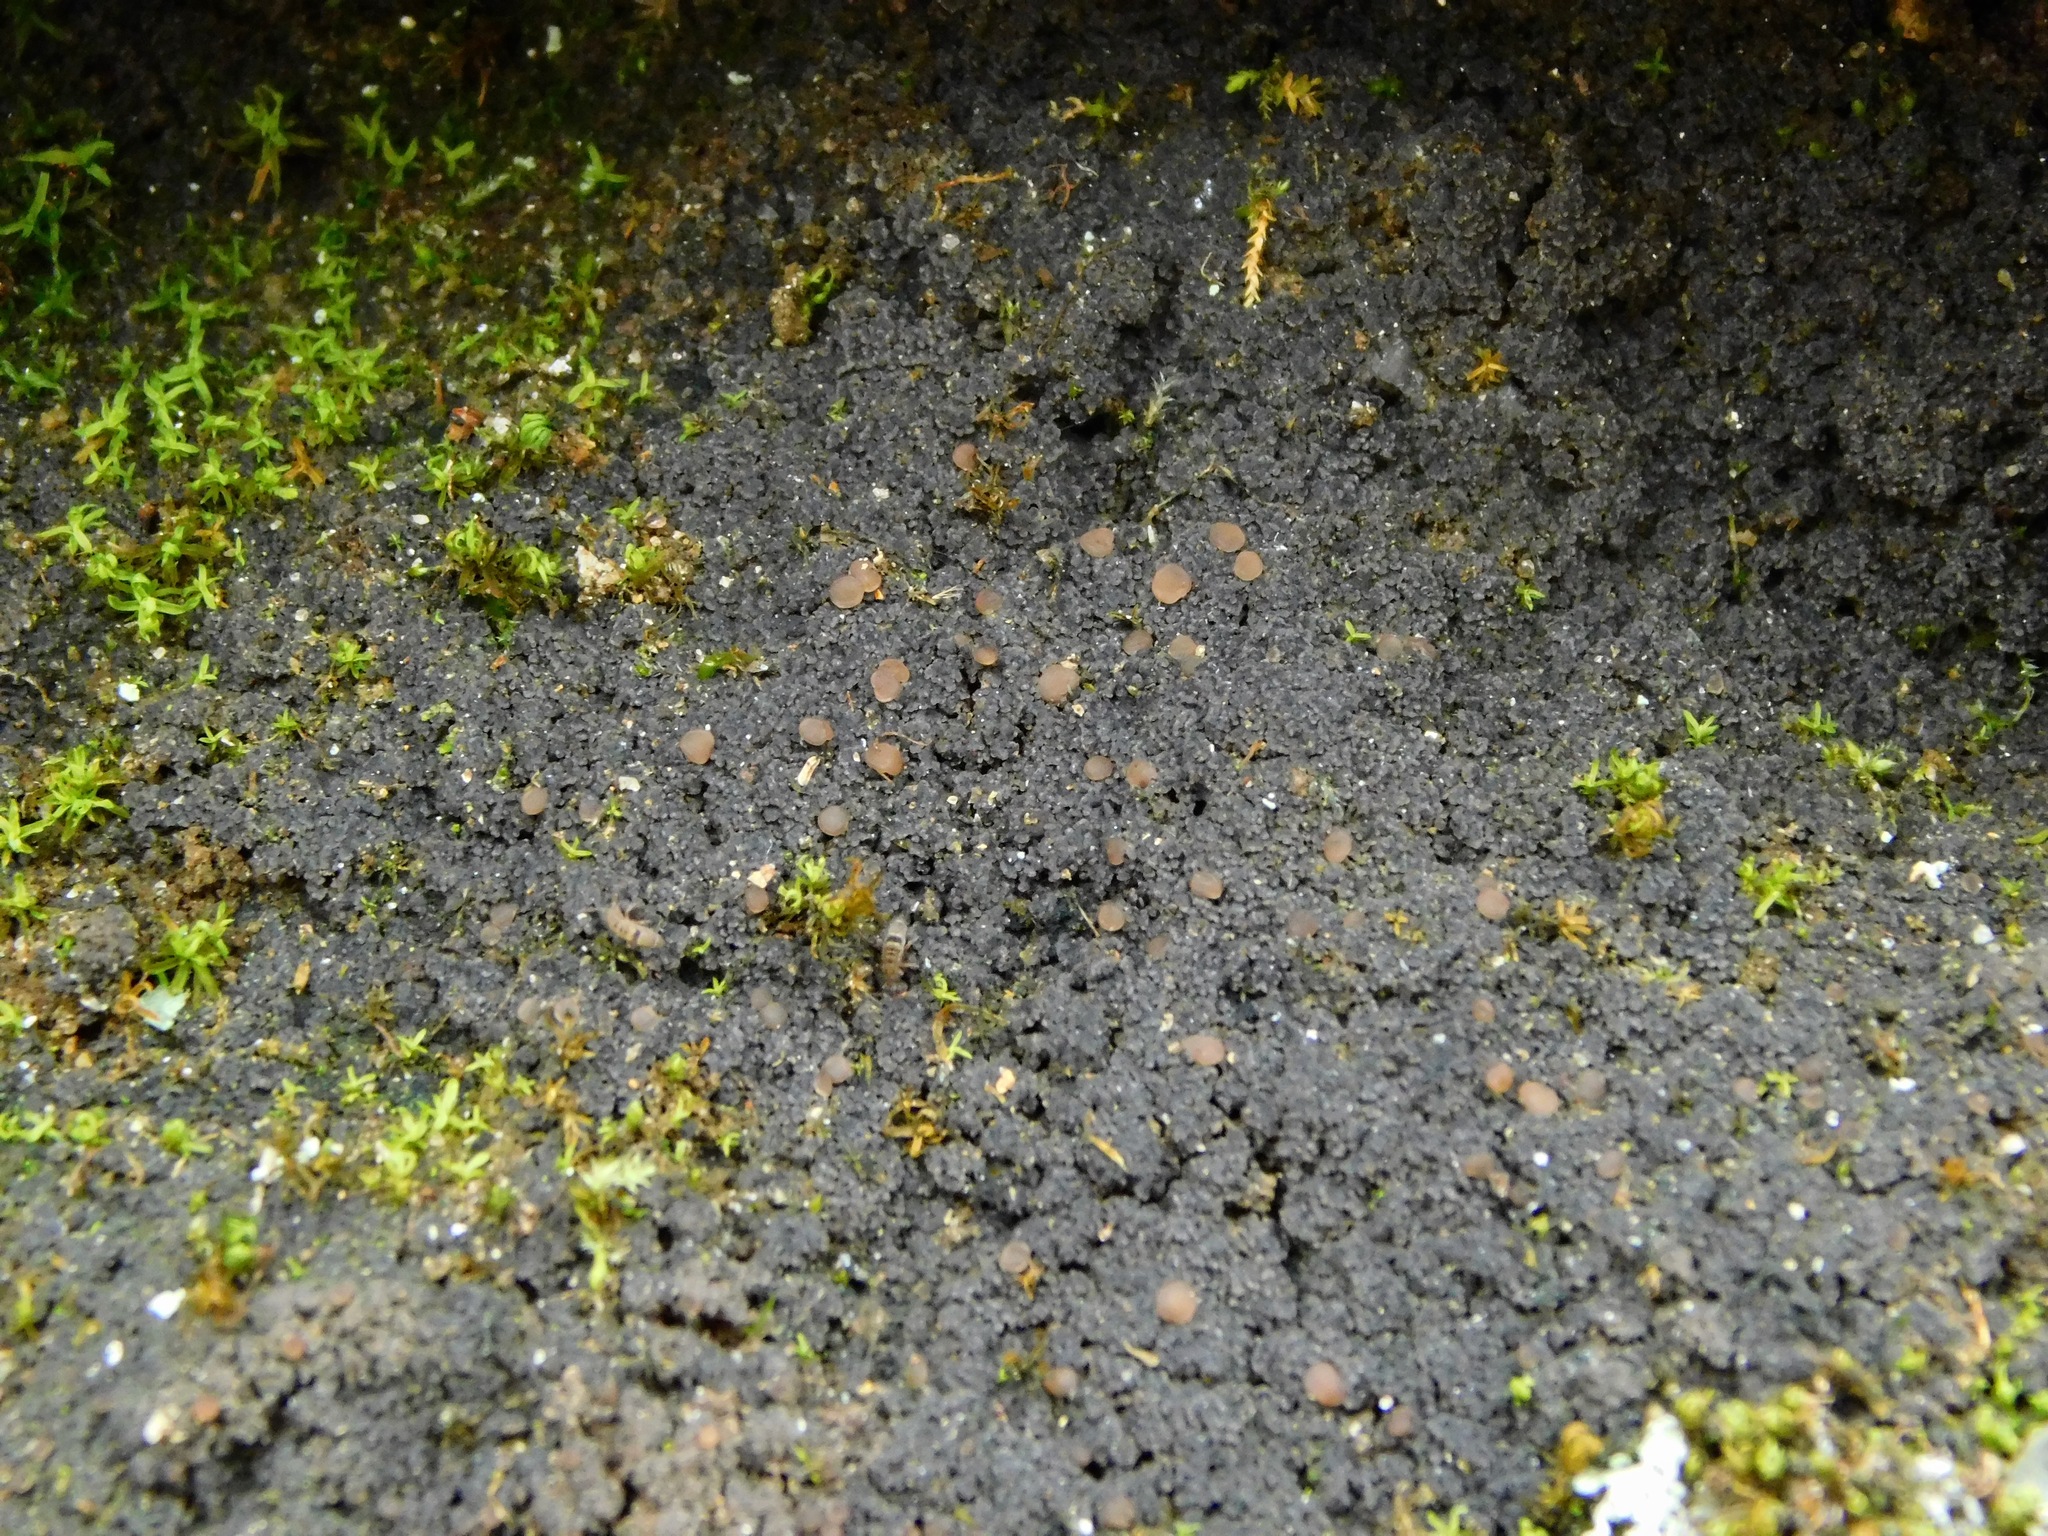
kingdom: Fungi
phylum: Ascomycota
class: Lecanoromycetes
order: Peltigerales
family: Pannariaceae
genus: Rockefellera
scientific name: Rockefellera crossophylla
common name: Rockefeller's gray crosslobes
